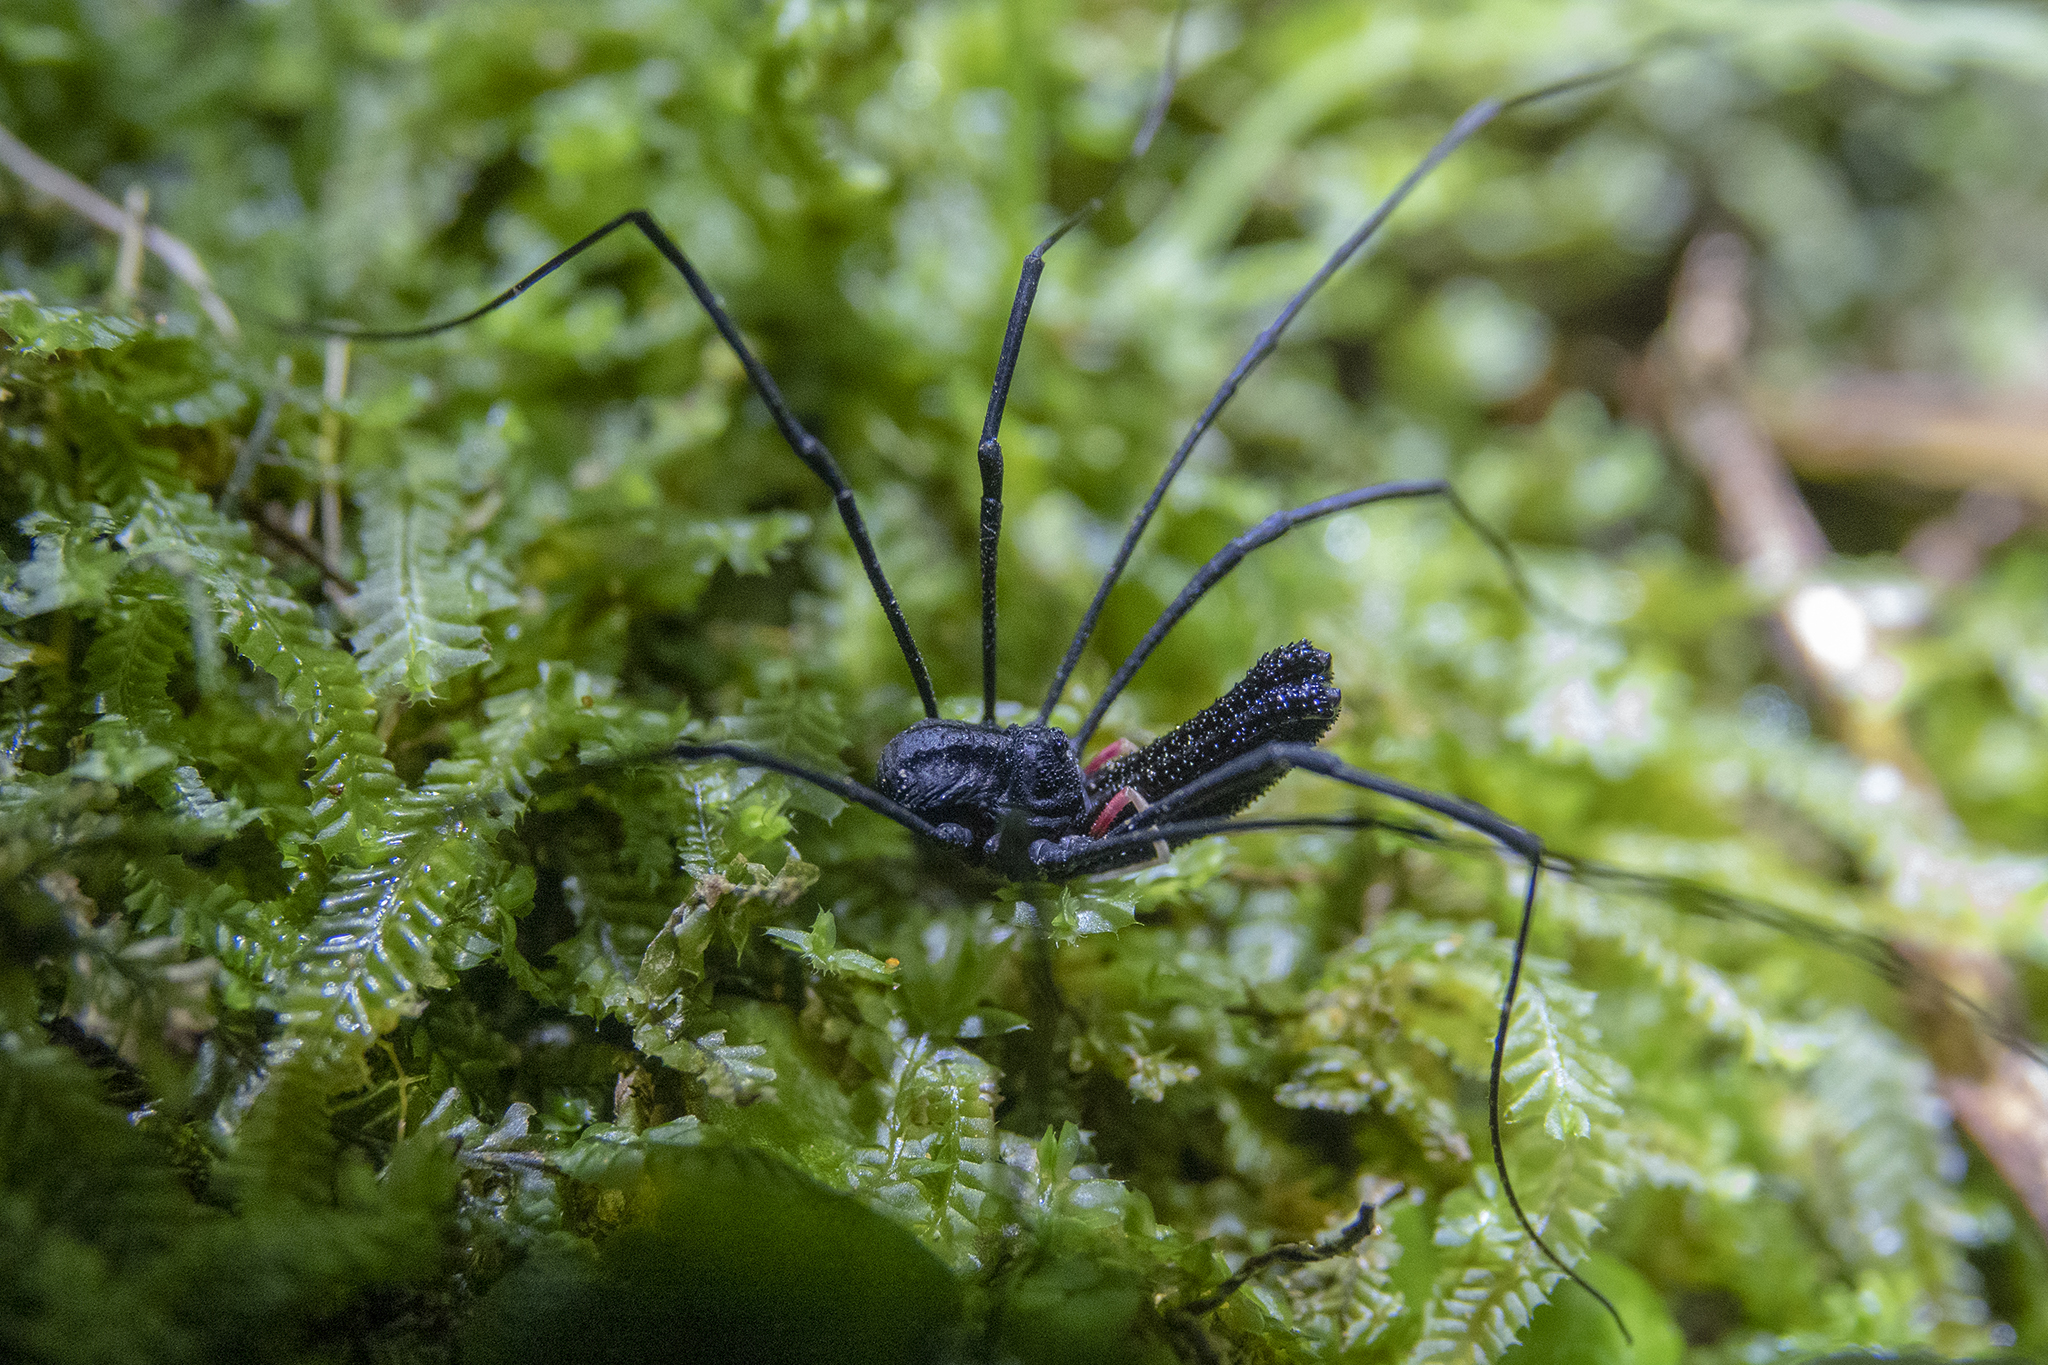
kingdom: Animalia
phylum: Arthropoda
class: Arachnida
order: Opiliones
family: Neopilionidae
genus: Forsteropsalis
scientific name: Forsteropsalis inconstans
